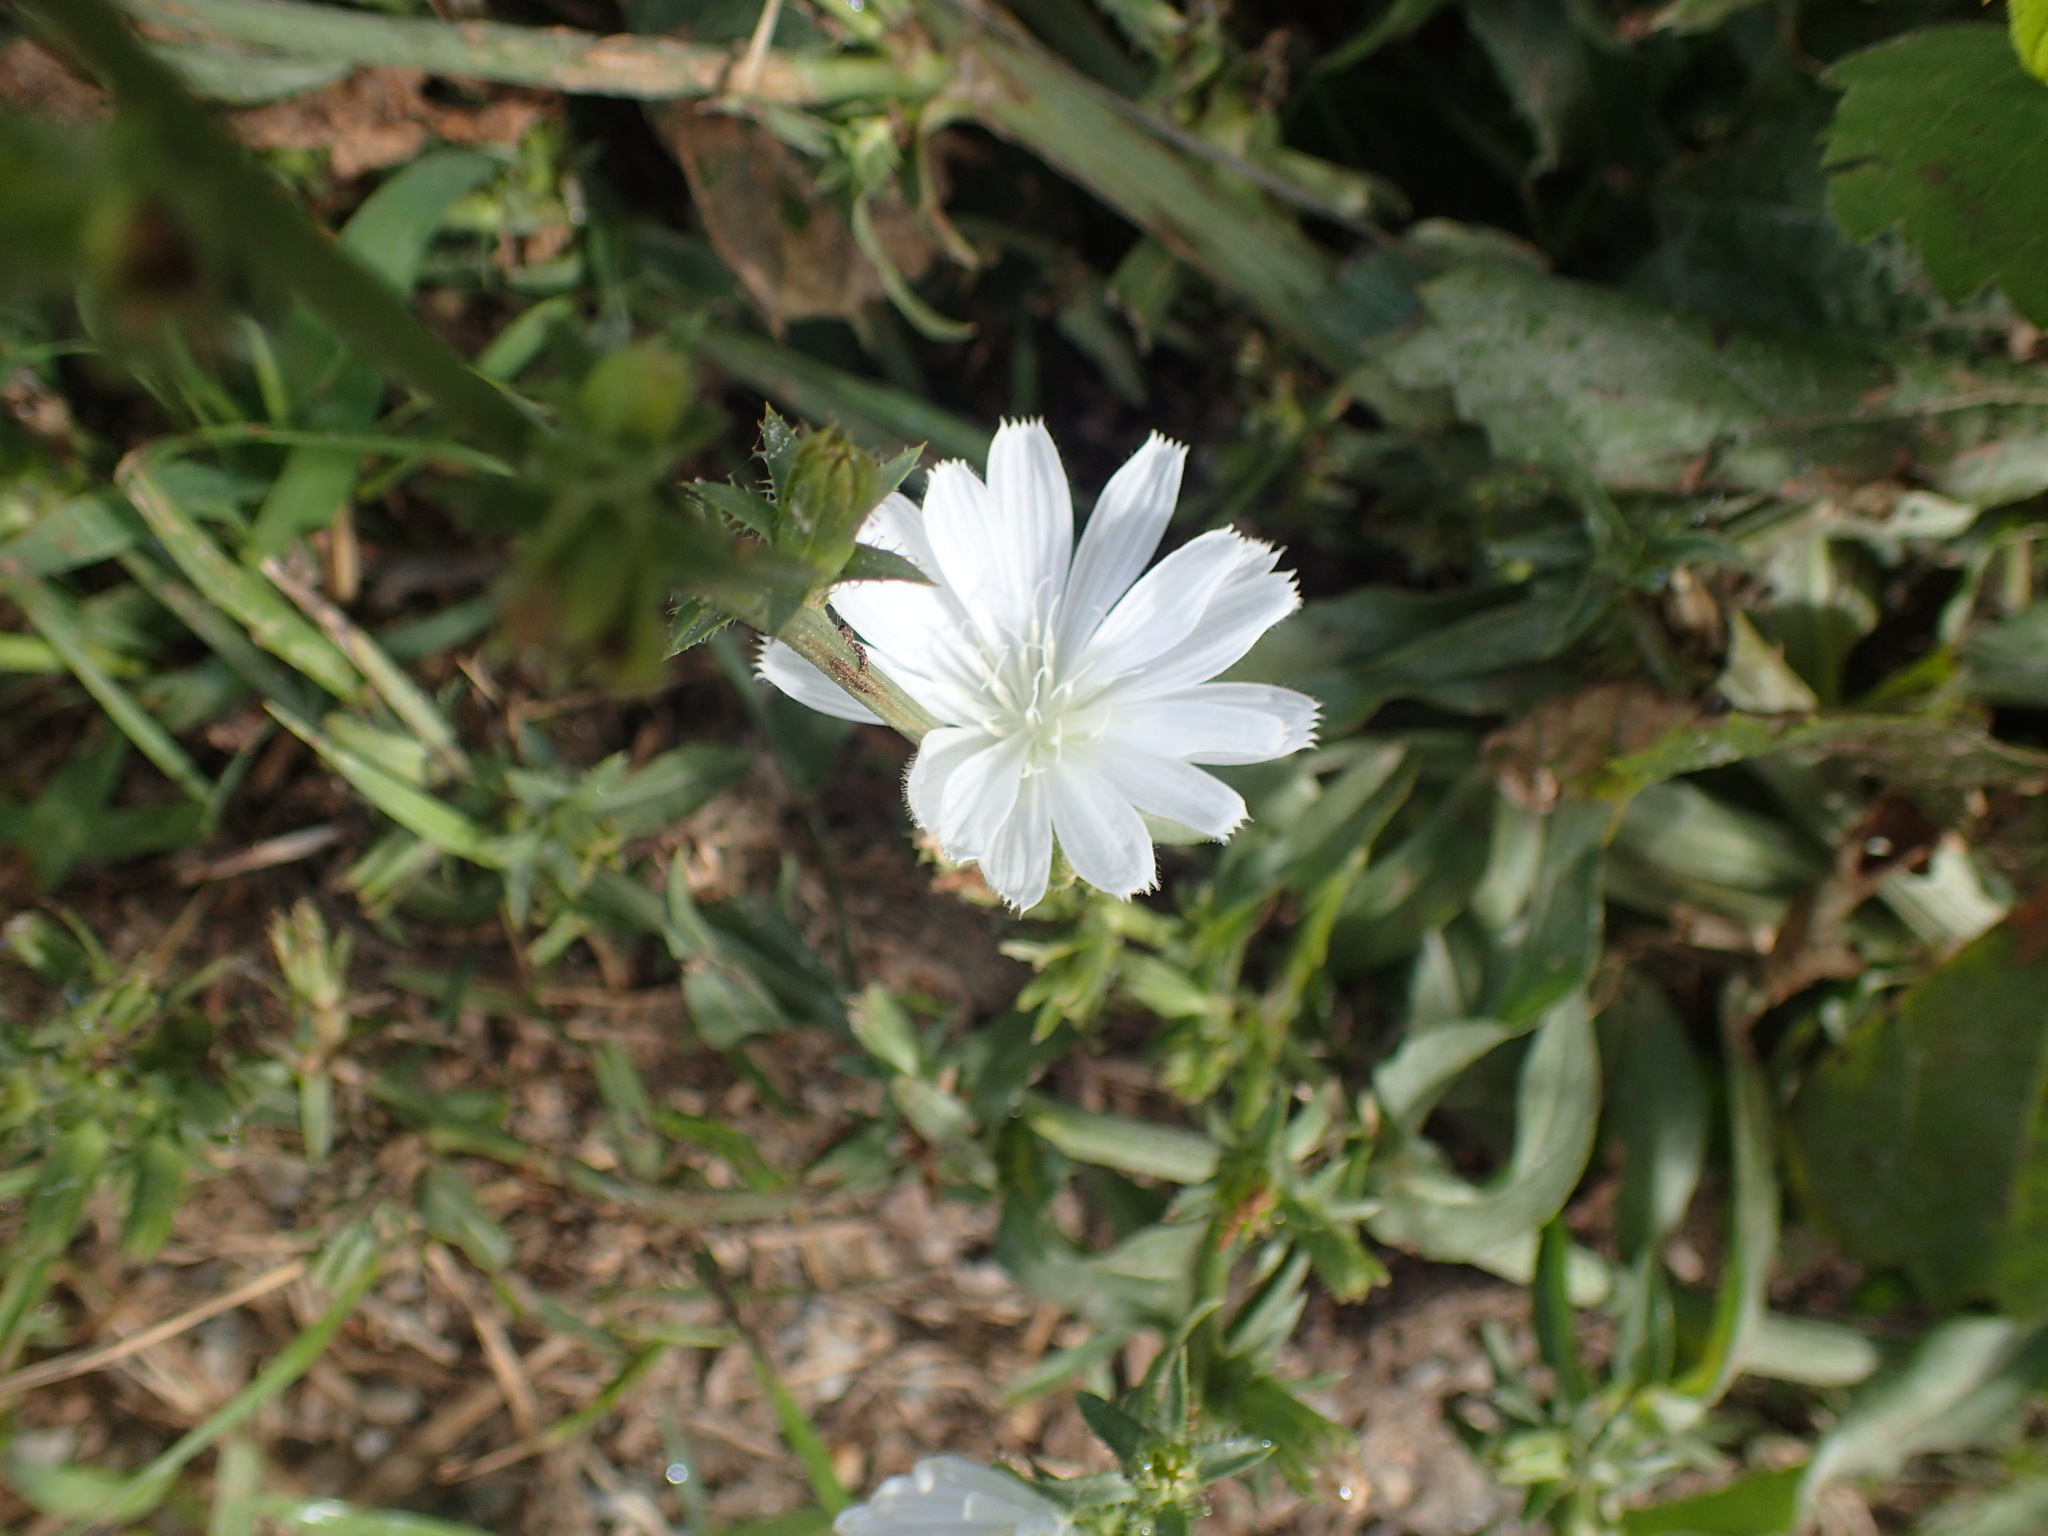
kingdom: Plantae
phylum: Tracheophyta
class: Magnoliopsida
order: Asterales
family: Asteraceae
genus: Cichorium
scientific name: Cichorium intybus
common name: Chicory
